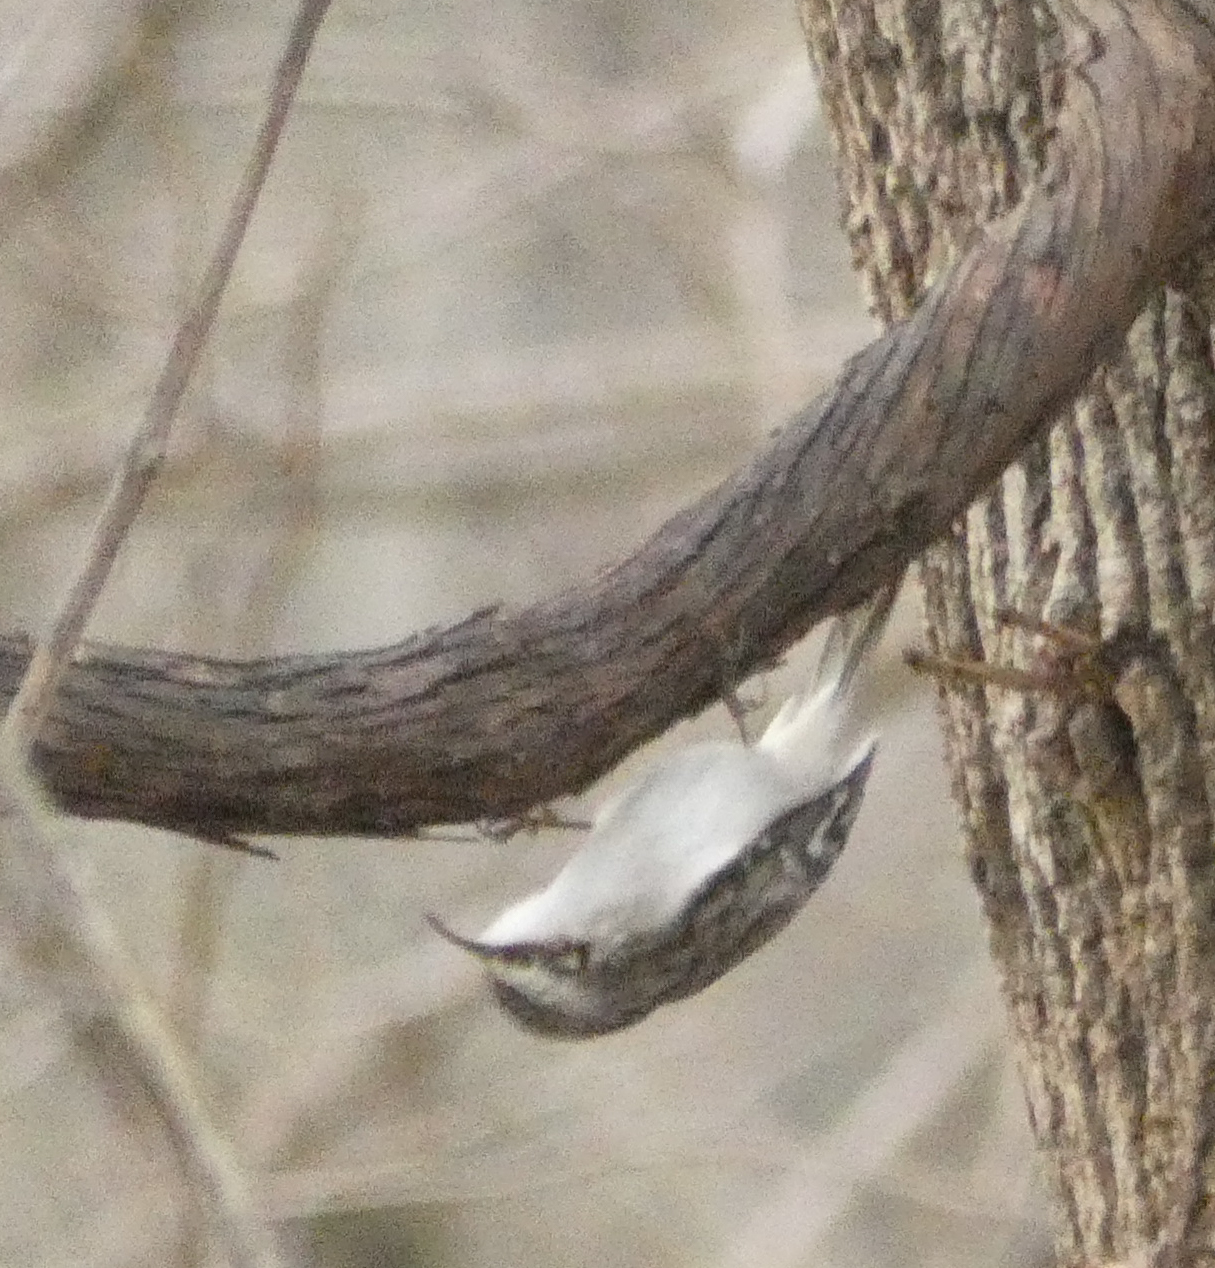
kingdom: Animalia
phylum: Chordata
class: Aves
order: Passeriformes
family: Certhiidae
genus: Certhia
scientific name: Certhia americana
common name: Brown creeper
